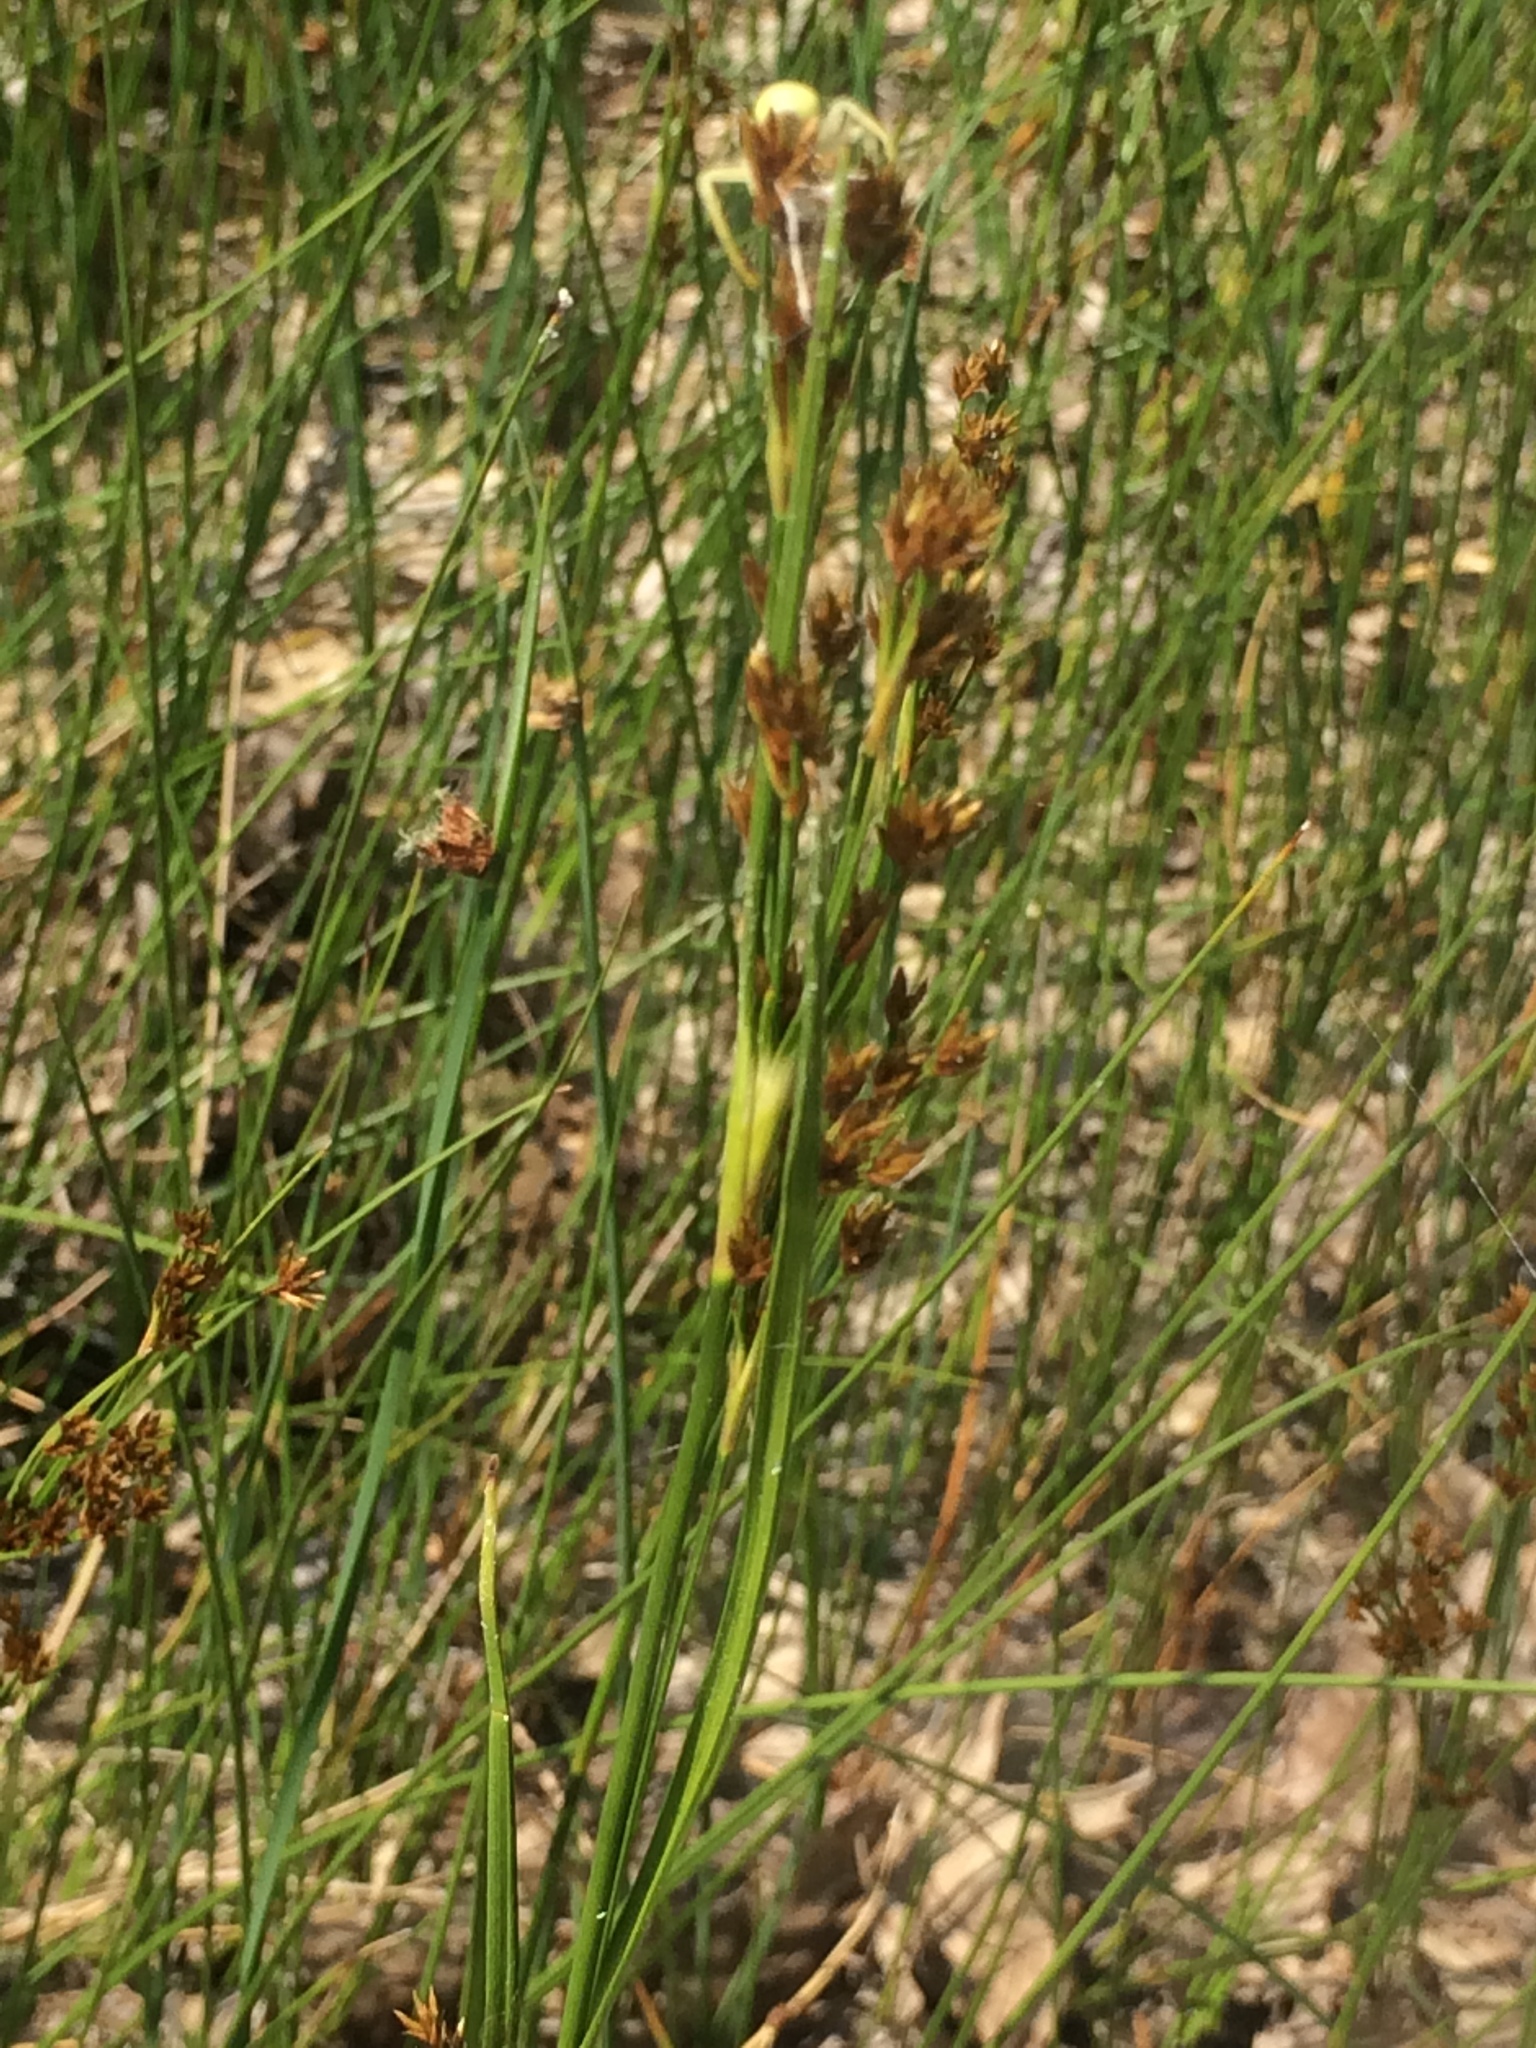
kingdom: Plantae
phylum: Tracheophyta
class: Liliopsida
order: Poales
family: Cyperaceae
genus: Cladium
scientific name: Cladium mariscoides
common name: Smooth sawgrass
